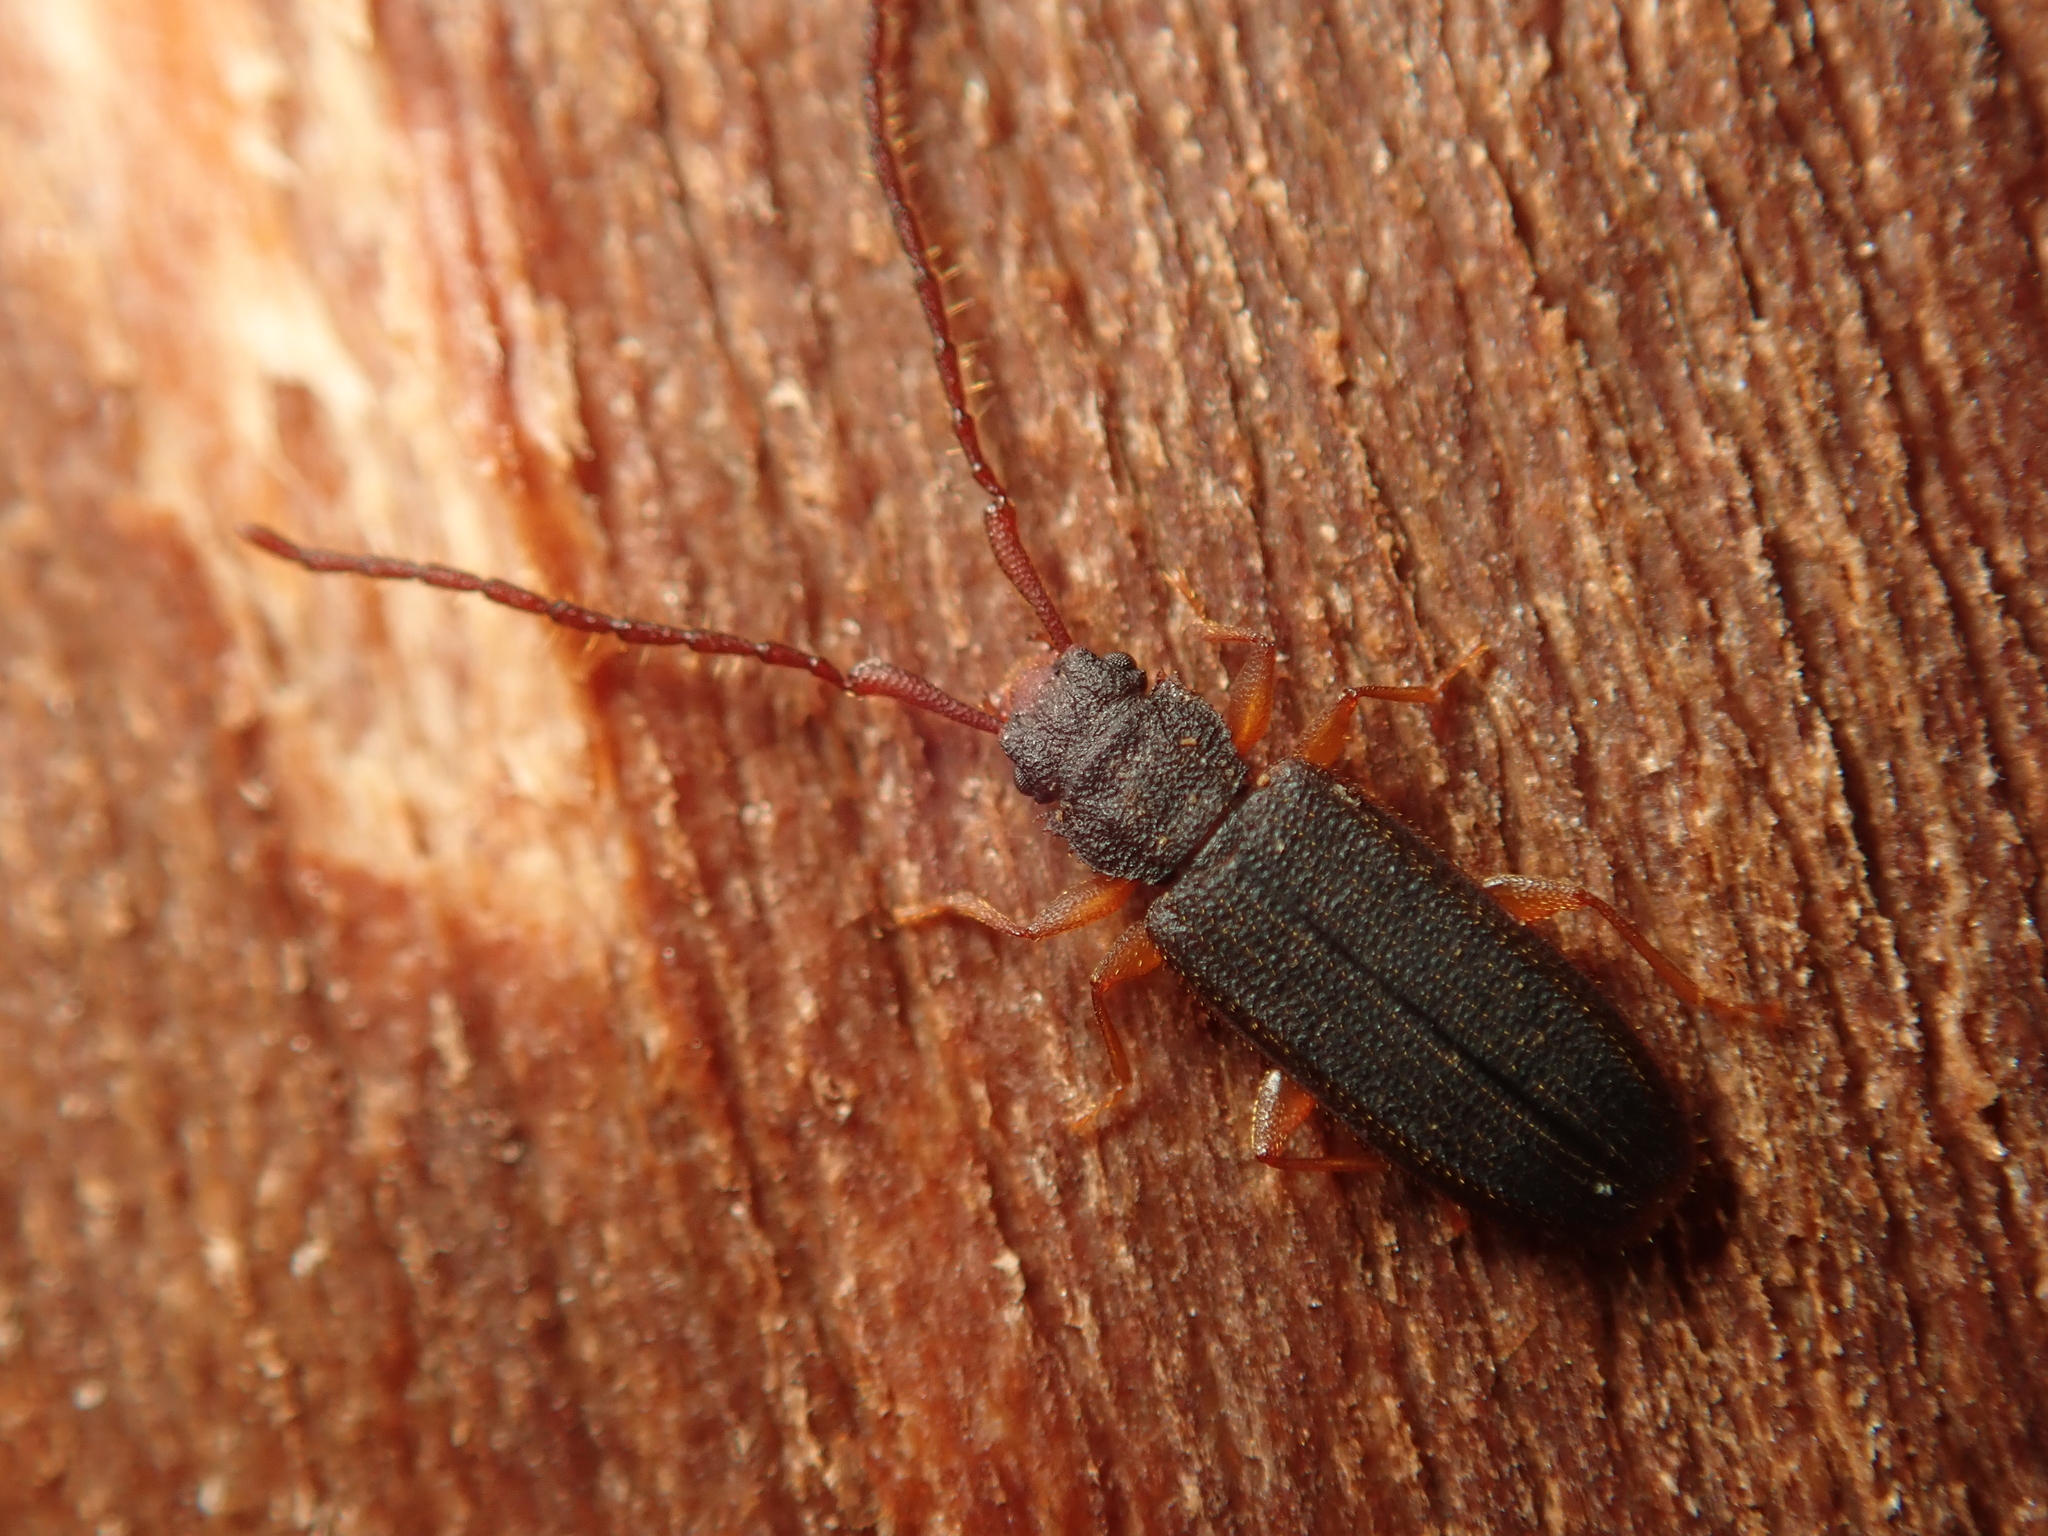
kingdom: Animalia
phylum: Arthropoda
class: Insecta
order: Coleoptera
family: Silvanidae
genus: Uleiota
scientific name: Uleiota planatus
